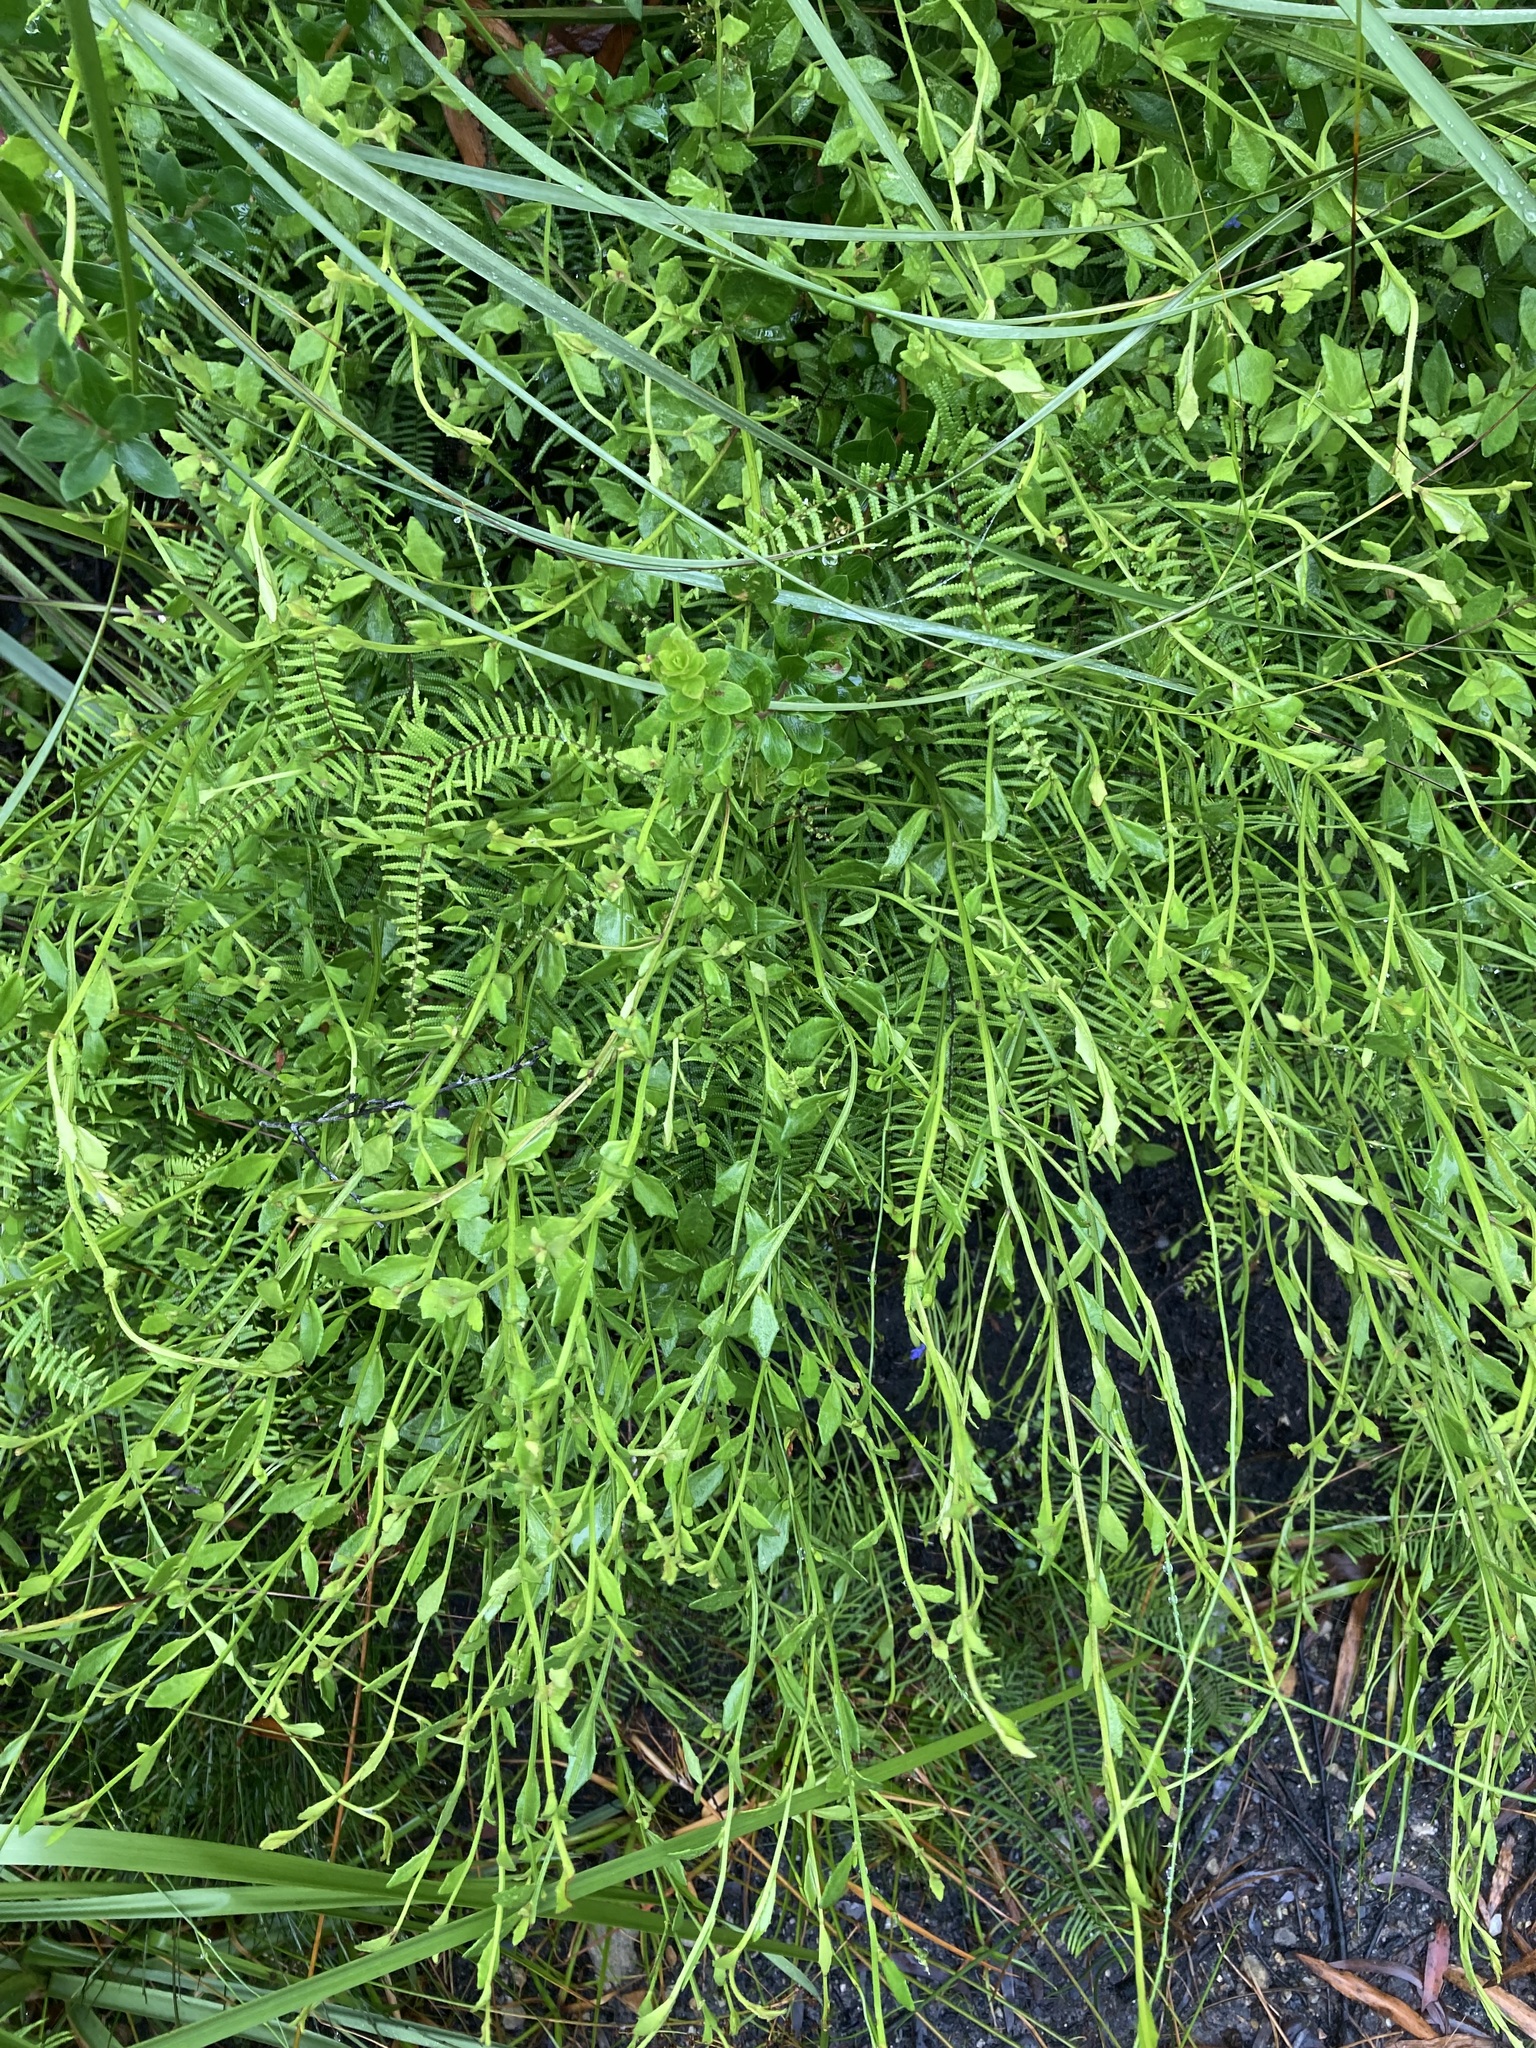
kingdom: Plantae
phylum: Tracheophyta
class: Magnoliopsida
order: Asterales
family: Goodeniaceae
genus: Dampiera
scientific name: Dampiera stricta
